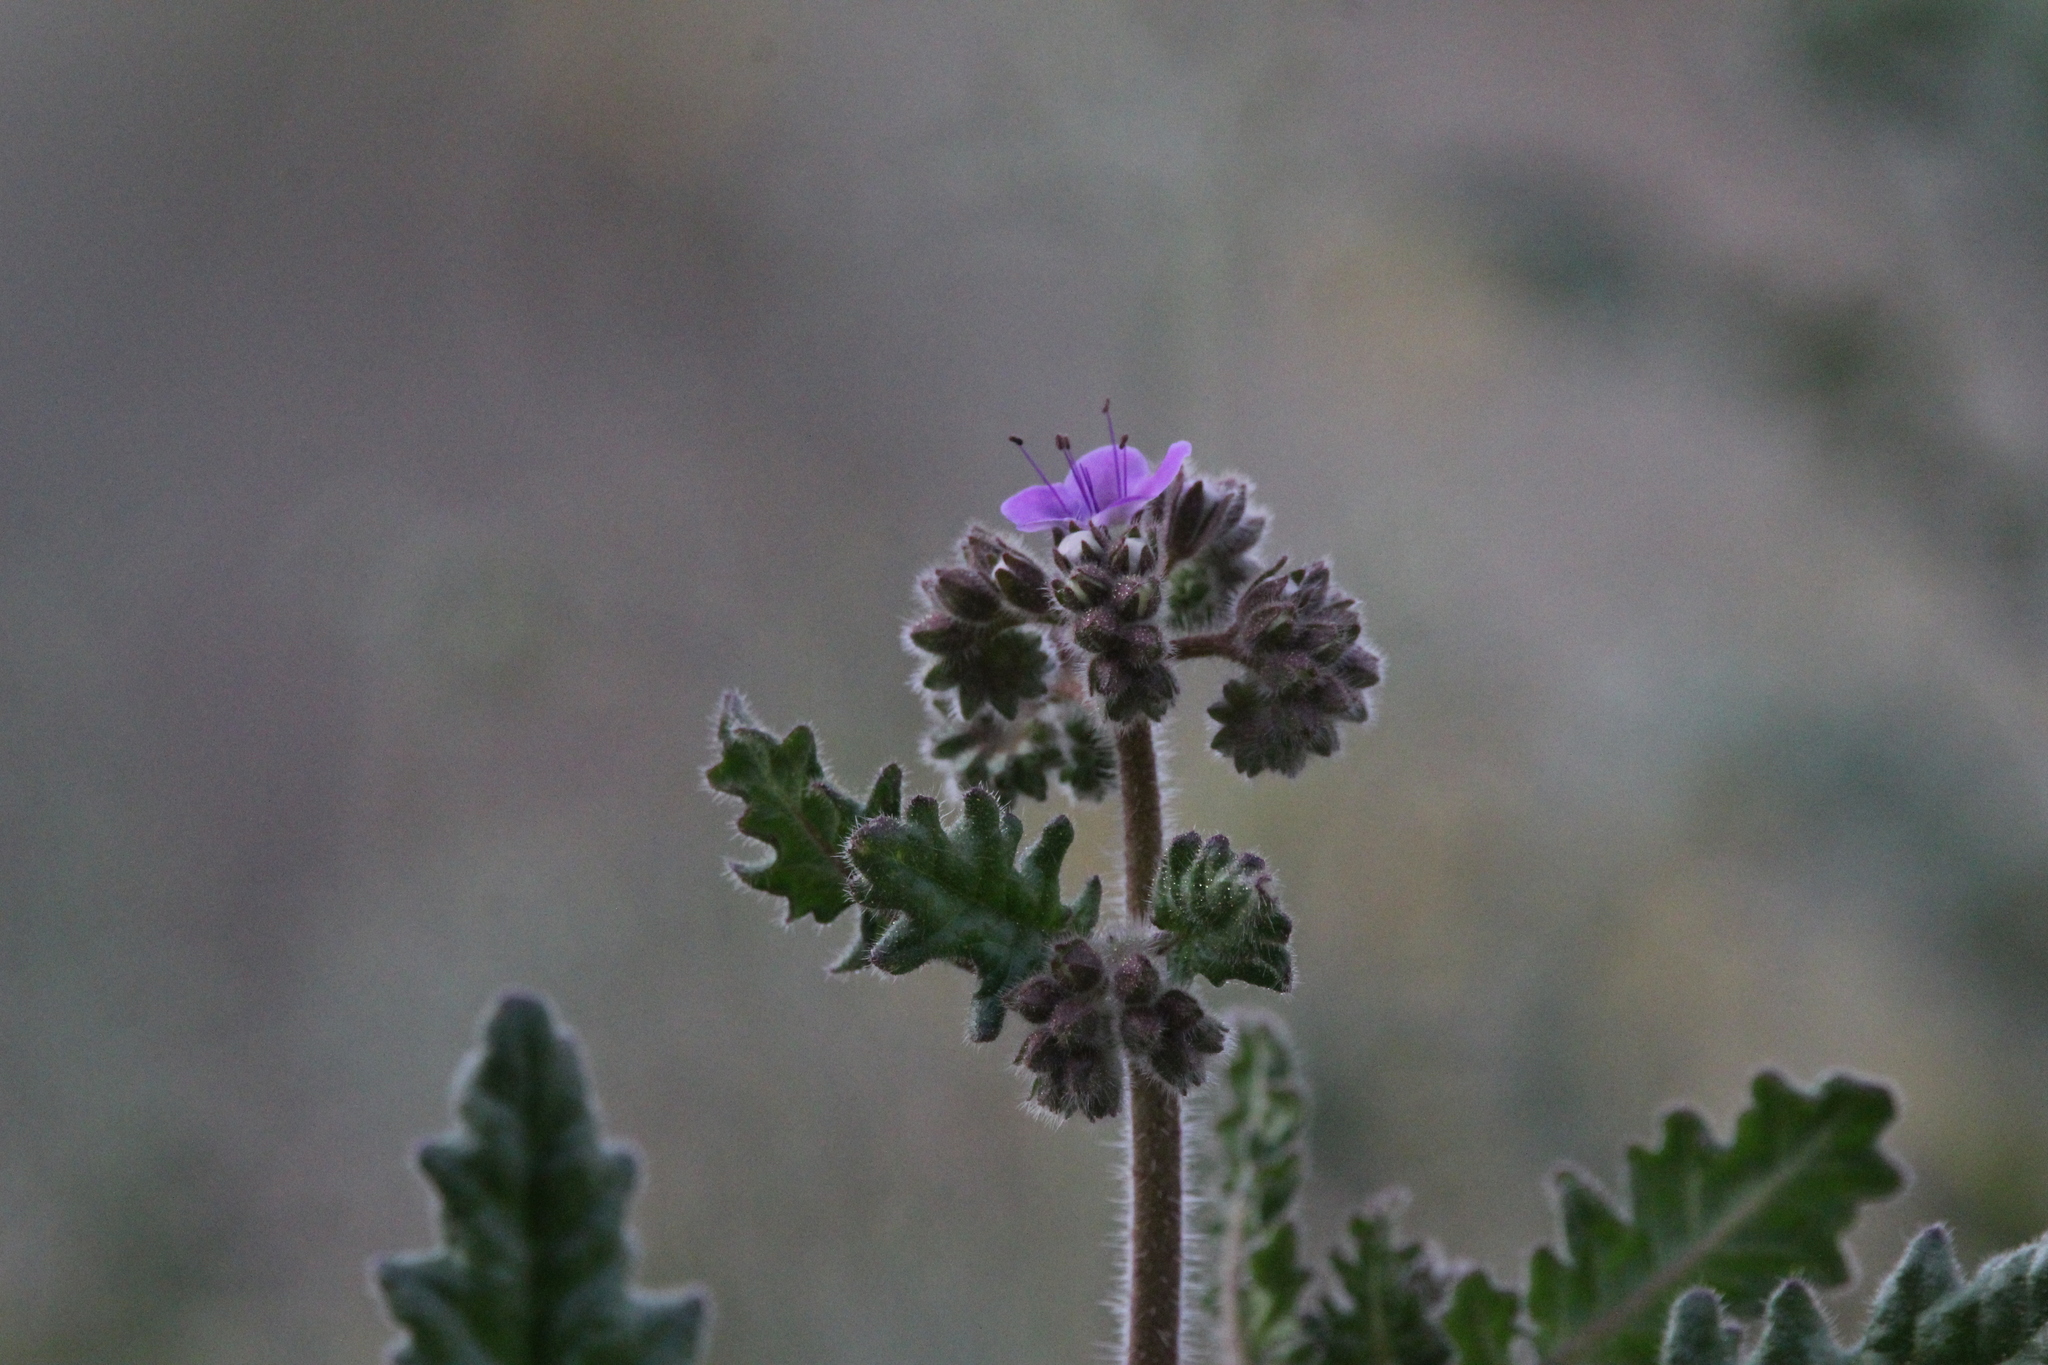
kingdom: Plantae
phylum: Tracheophyta
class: Magnoliopsida
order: Boraginales
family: Hydrophyllaceae
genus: Phacelia
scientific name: Phacelia crenulata
